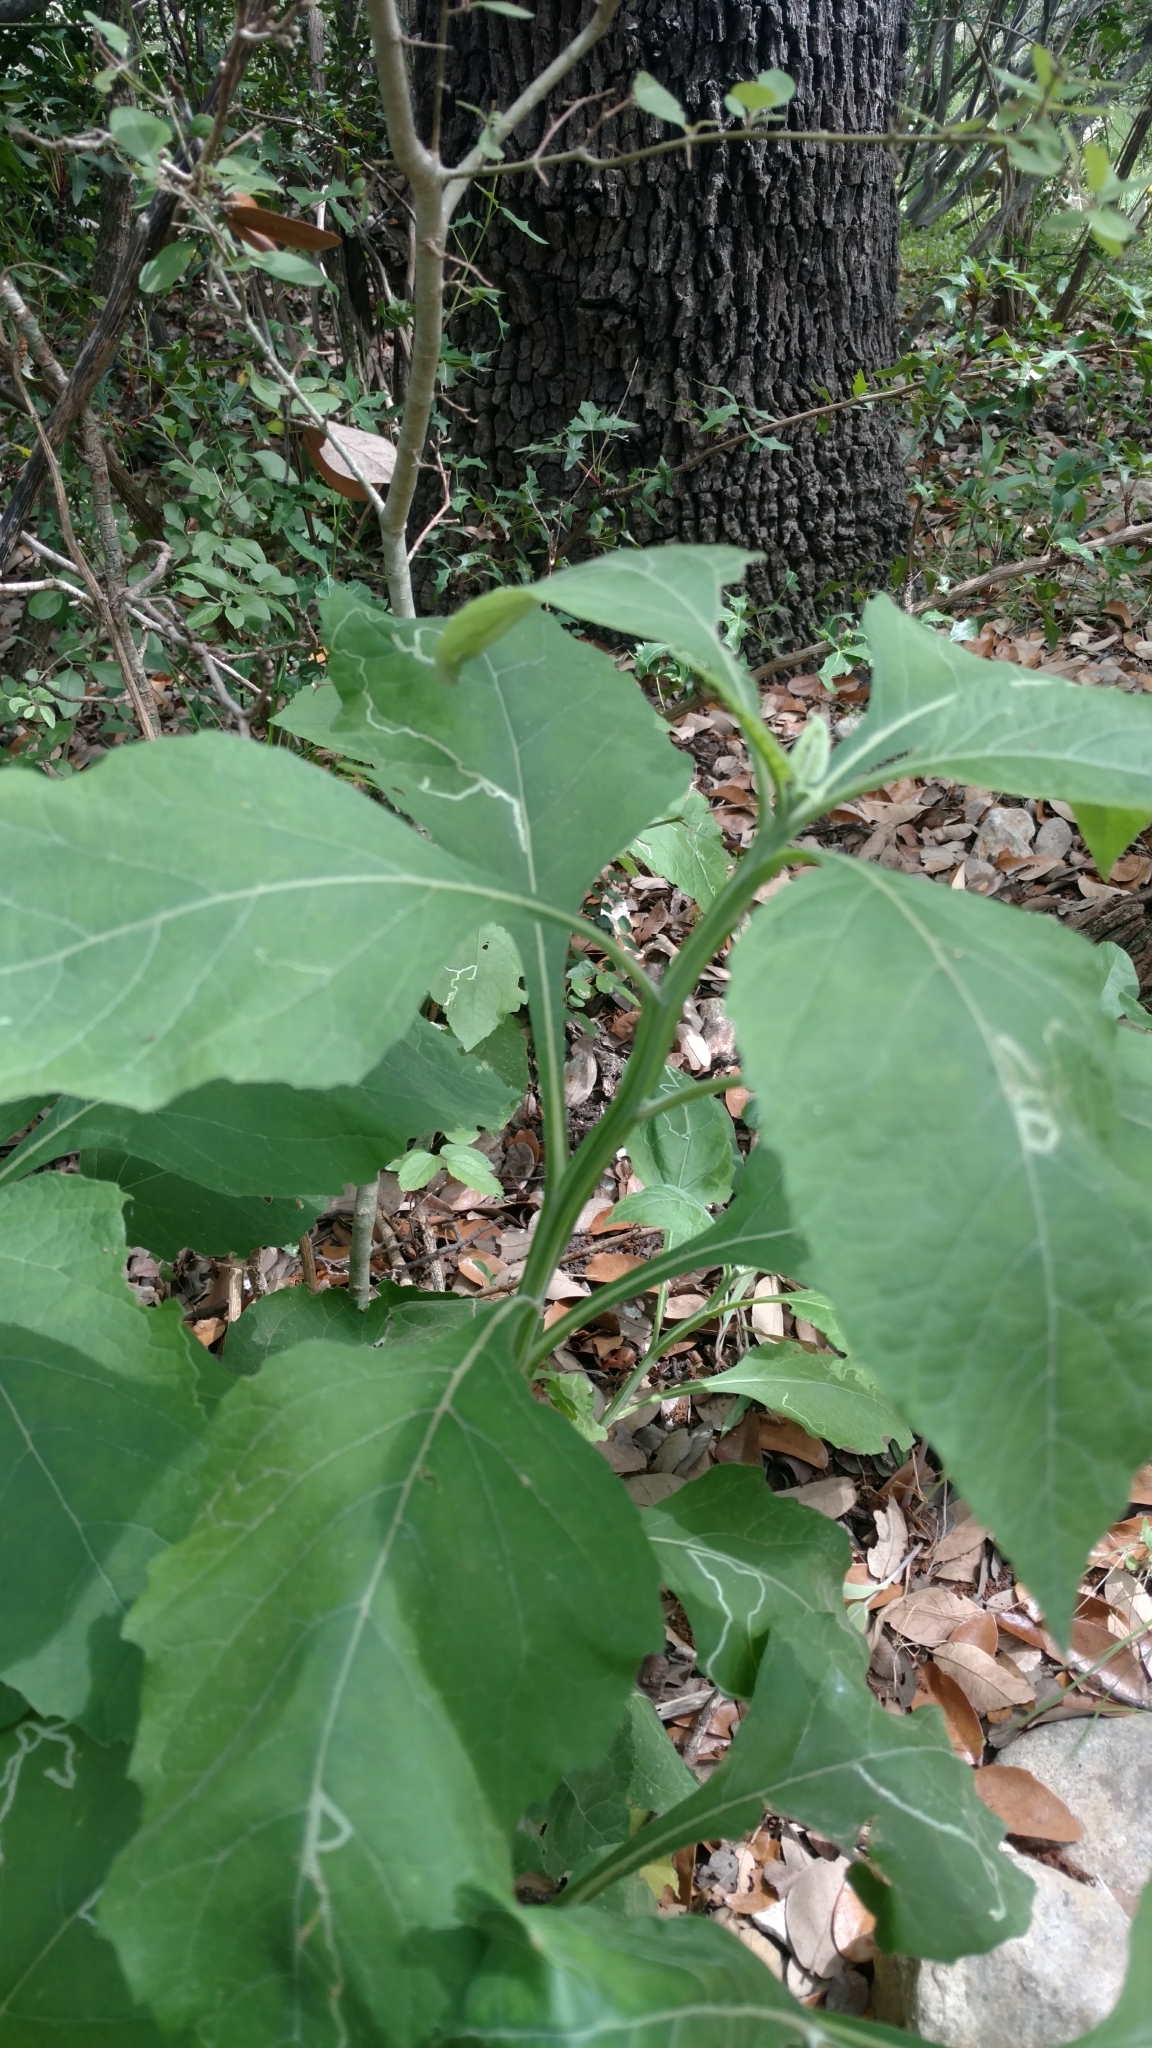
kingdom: Plantae
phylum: Tracheophyta
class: Magnoliopsida
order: Asterales
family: Asteraceae
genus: Verbesina
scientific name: Verbesina virginica
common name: Frostweed
